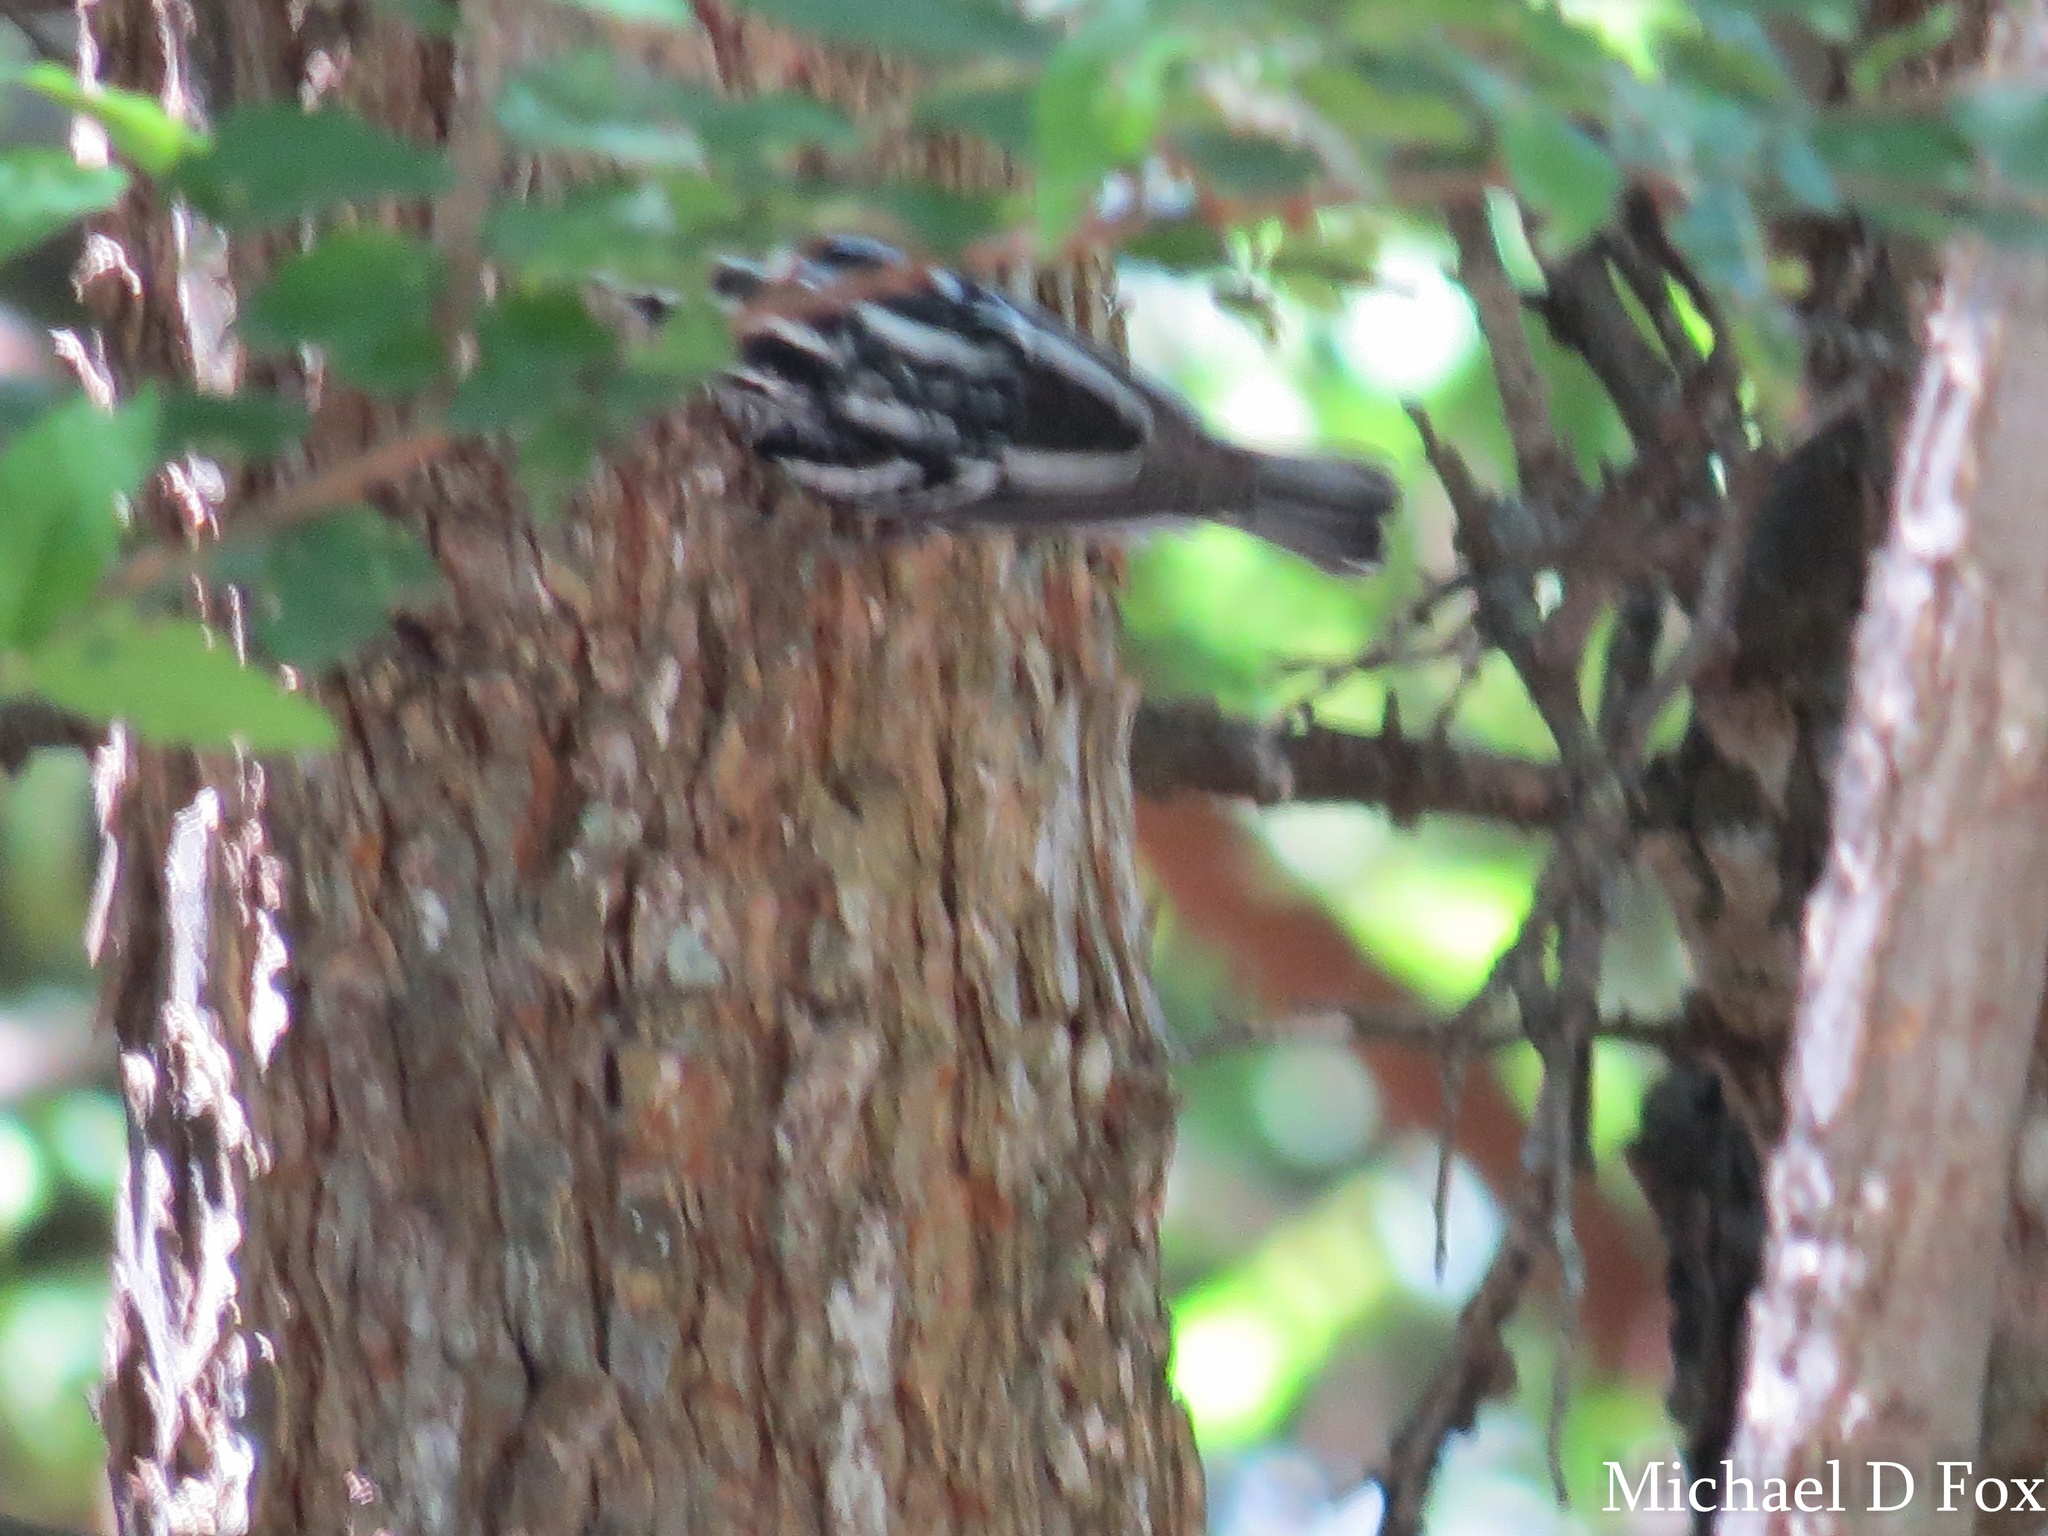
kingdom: Animalia
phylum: Chordata
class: Aves
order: Passeriformes
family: Parulidae
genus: Mniotilta
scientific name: Mniotilta varia
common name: Black-and-white warbler
